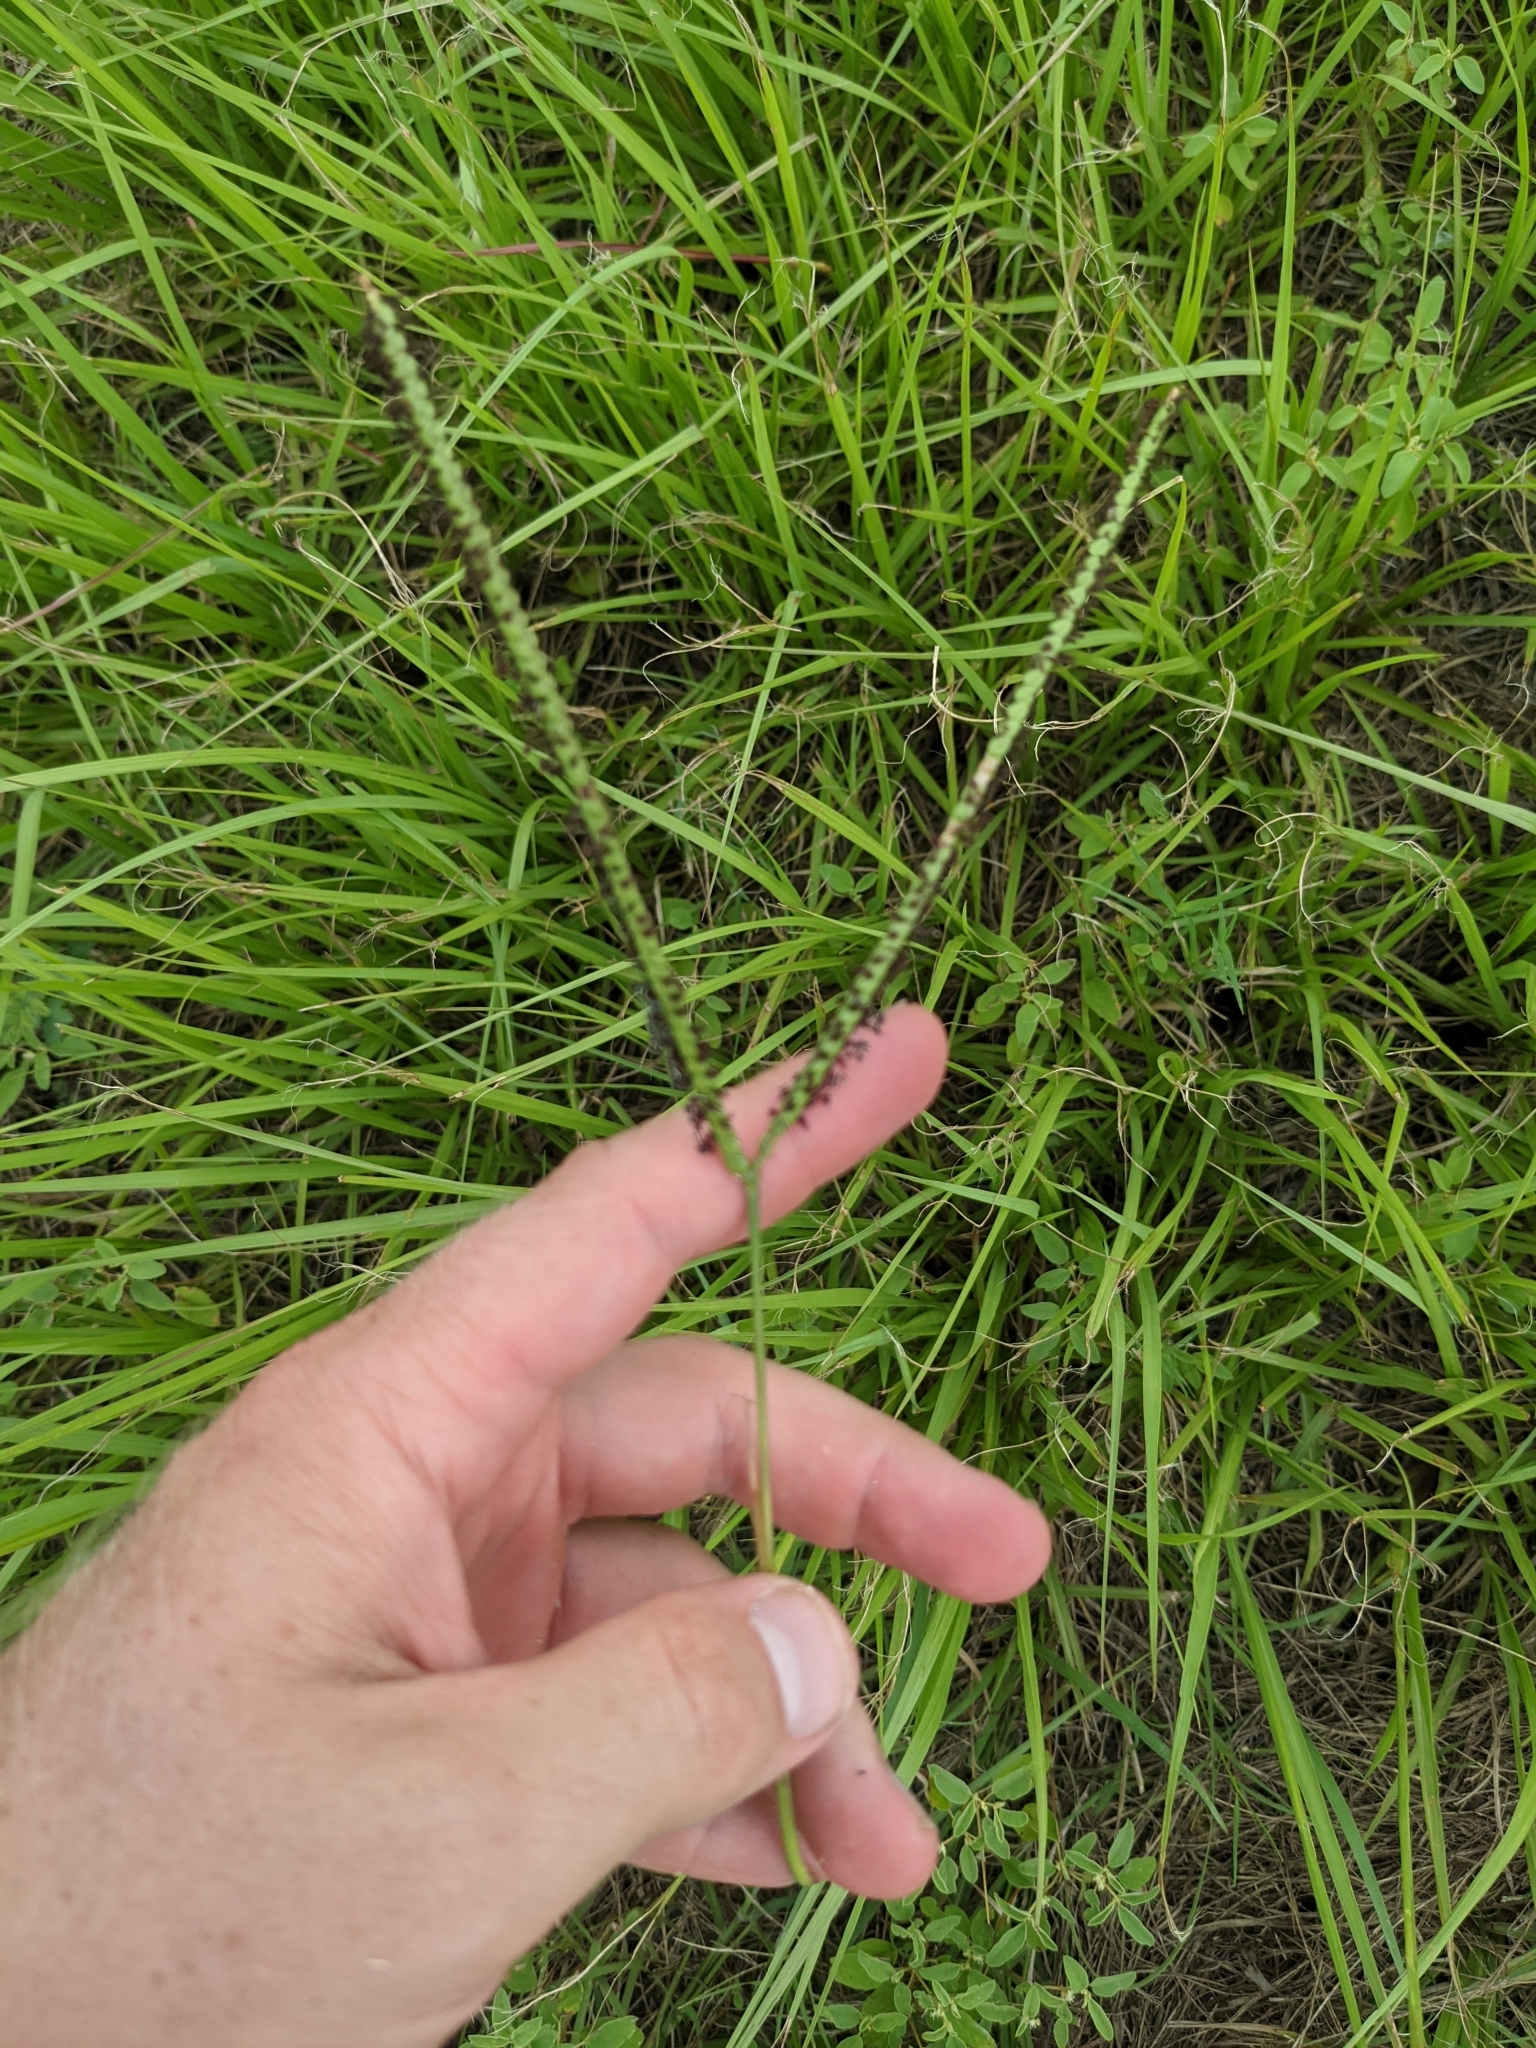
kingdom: Plantae
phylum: Tracheophyta
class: Liliopsida
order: Poales
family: Poaceae
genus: Paspalum
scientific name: Paspalum notatum
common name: Bahiagrass
